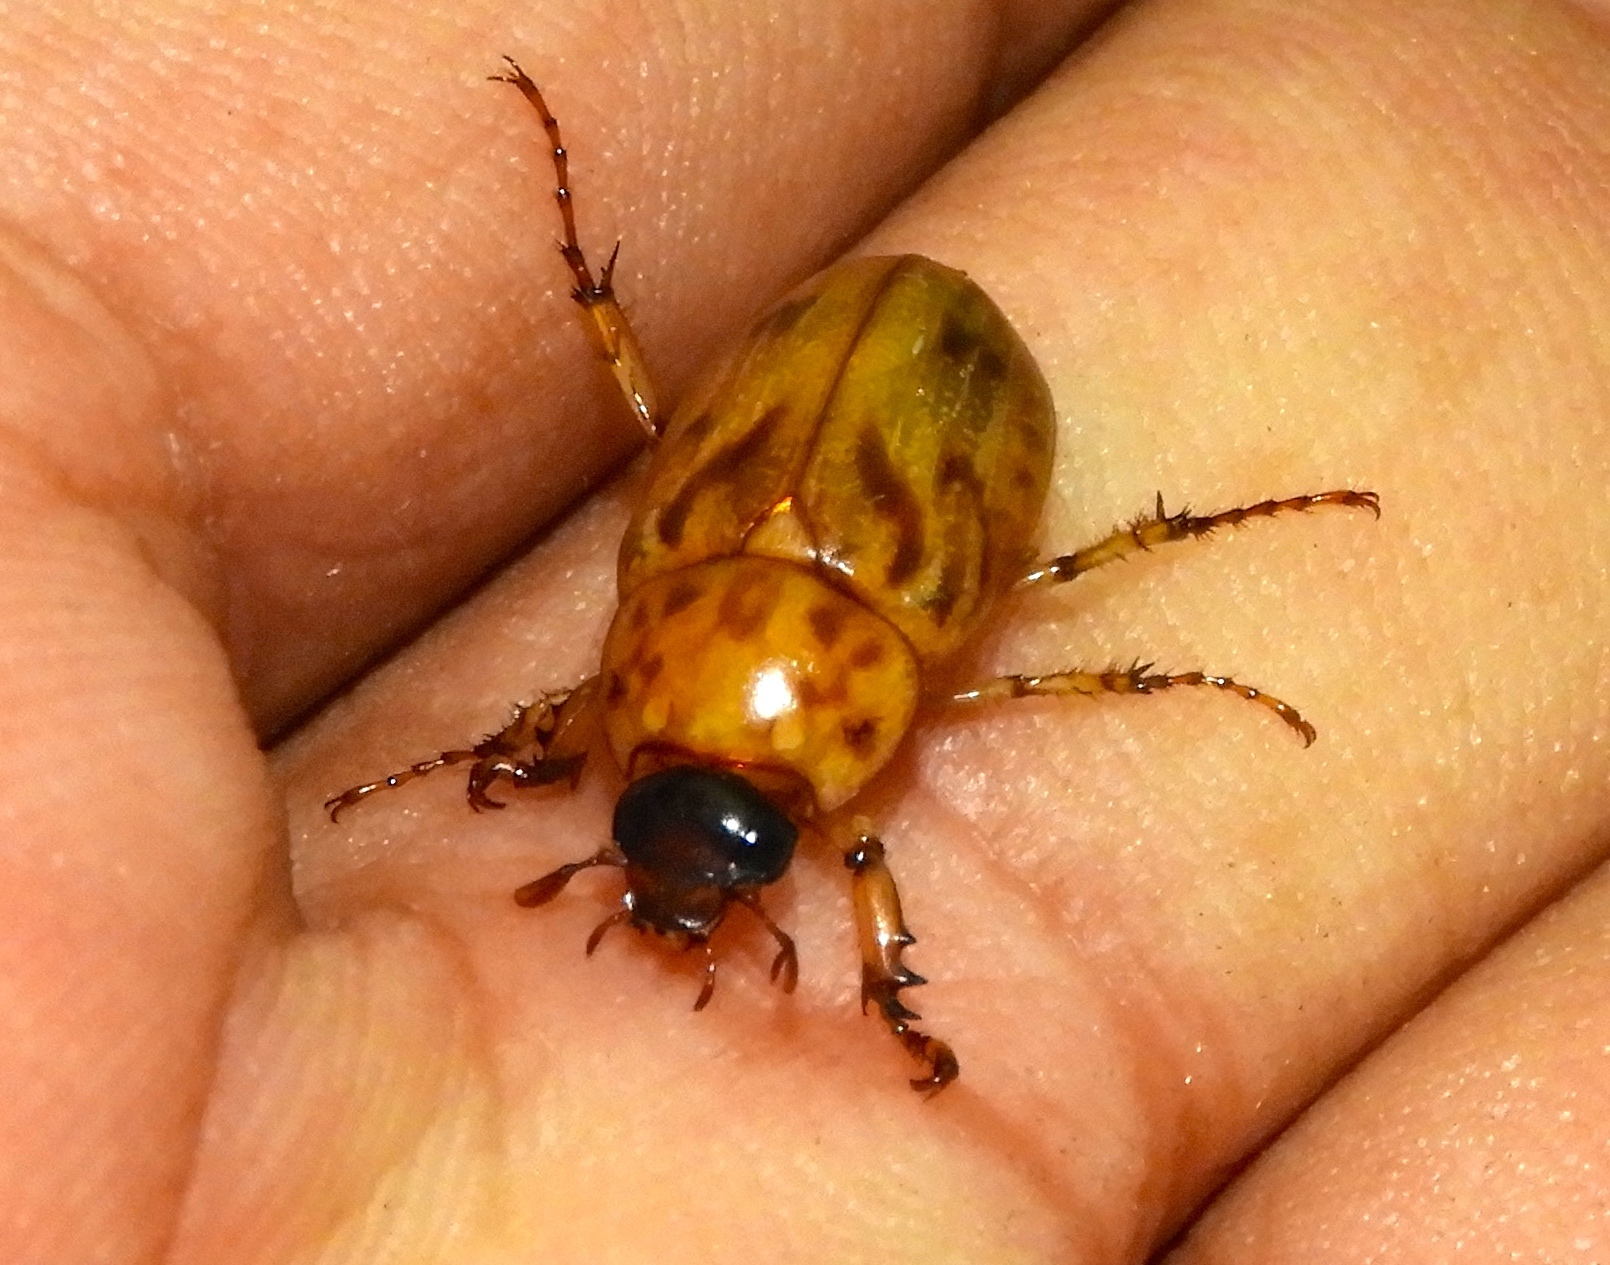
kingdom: Animalia
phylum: Arthropoda
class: Insecta
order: Coleoptera
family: Scarabaeidae
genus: Cyclocephala
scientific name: Cyclocephala lunulata
